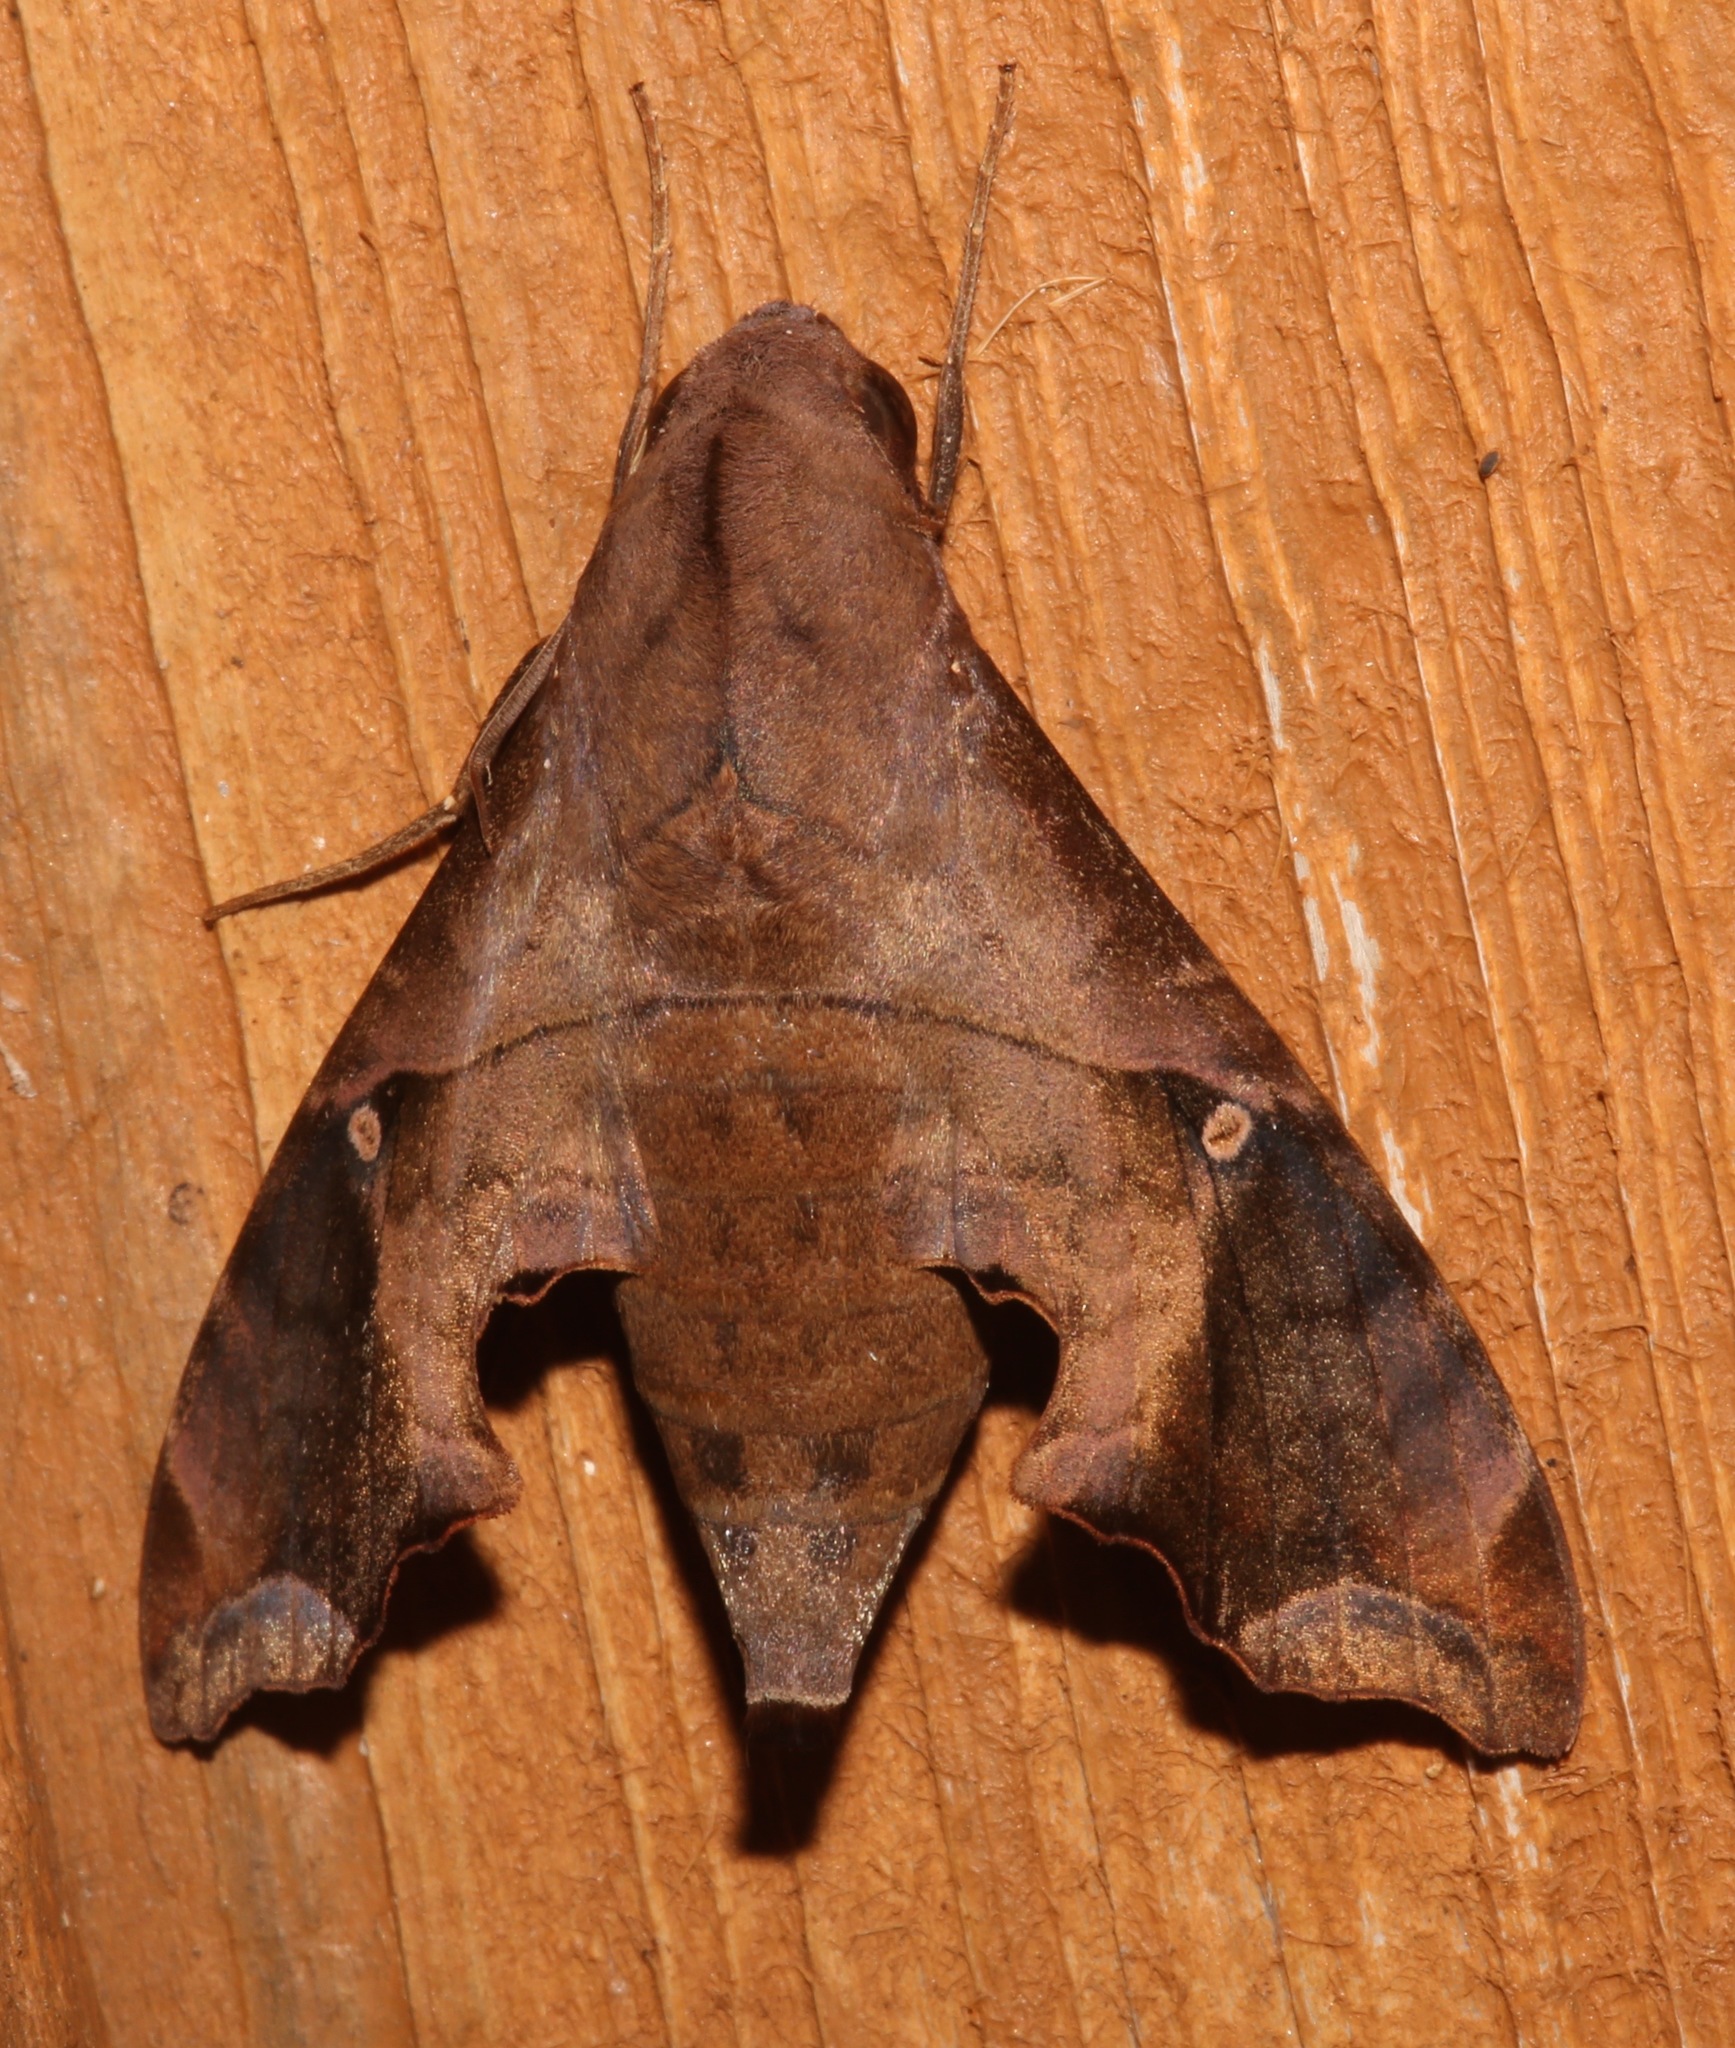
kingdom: Animalia
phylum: Arthropoda
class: Insecta
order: Lepidoptera
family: Sphingidae
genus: Enyo
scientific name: Enyo lugubris
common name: Mournful sphinx
